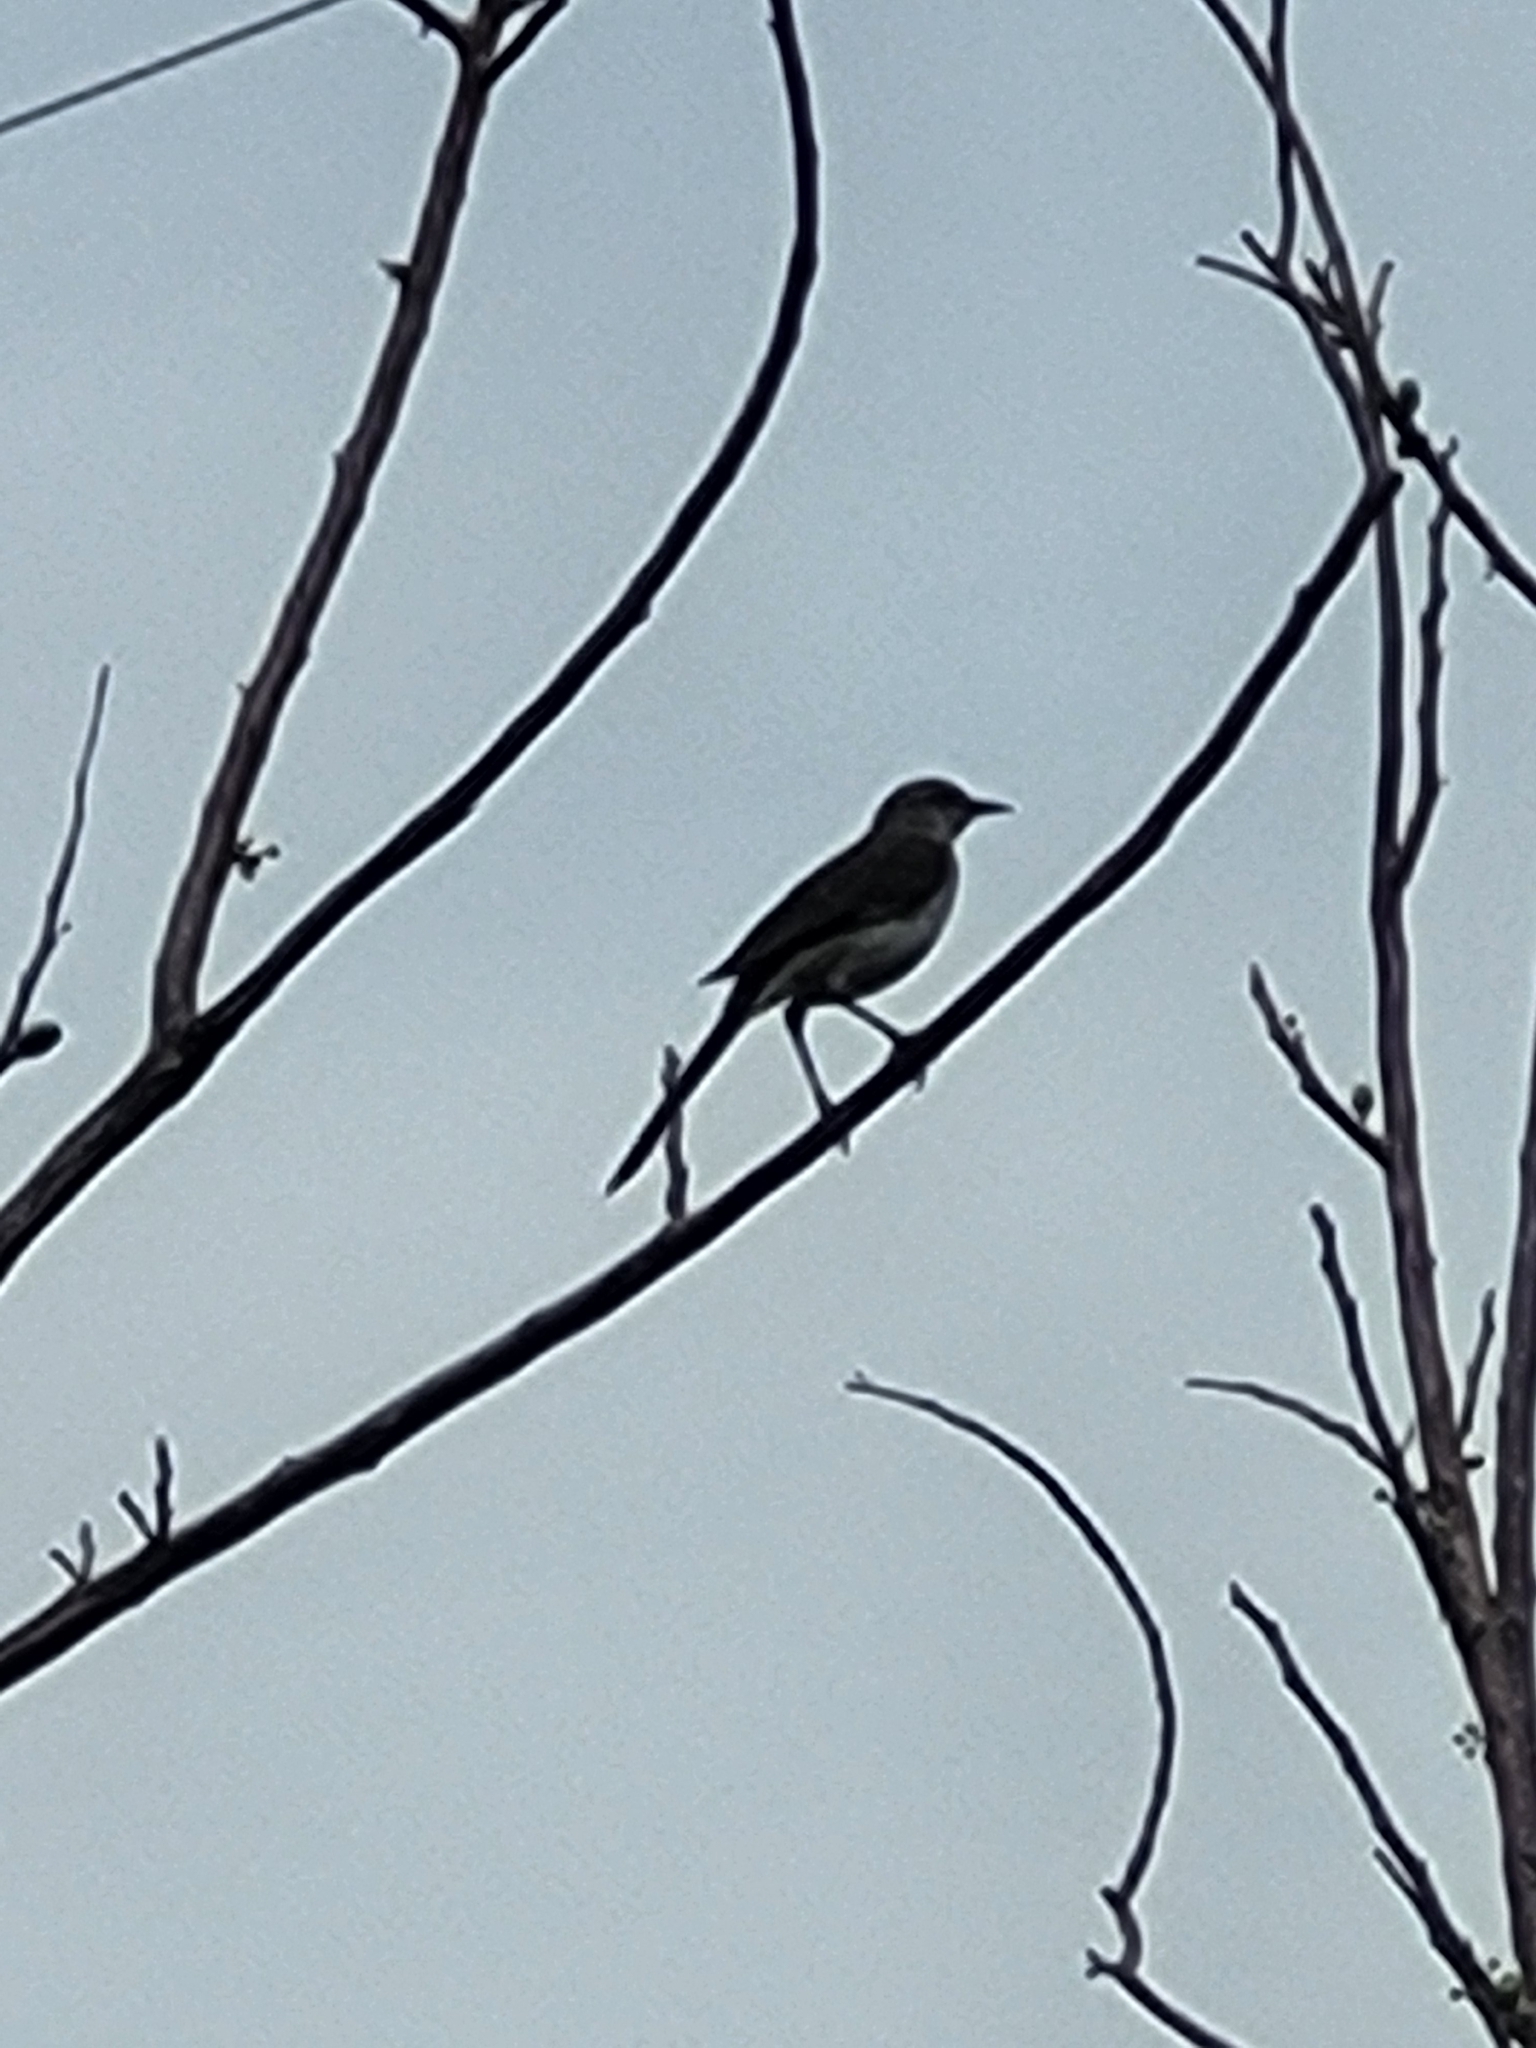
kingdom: Animalia
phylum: Chordata
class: Aves
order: Passeriformes
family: Mimidae
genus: Mimus
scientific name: Mimus polyglottos
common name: Northern mockingbird
